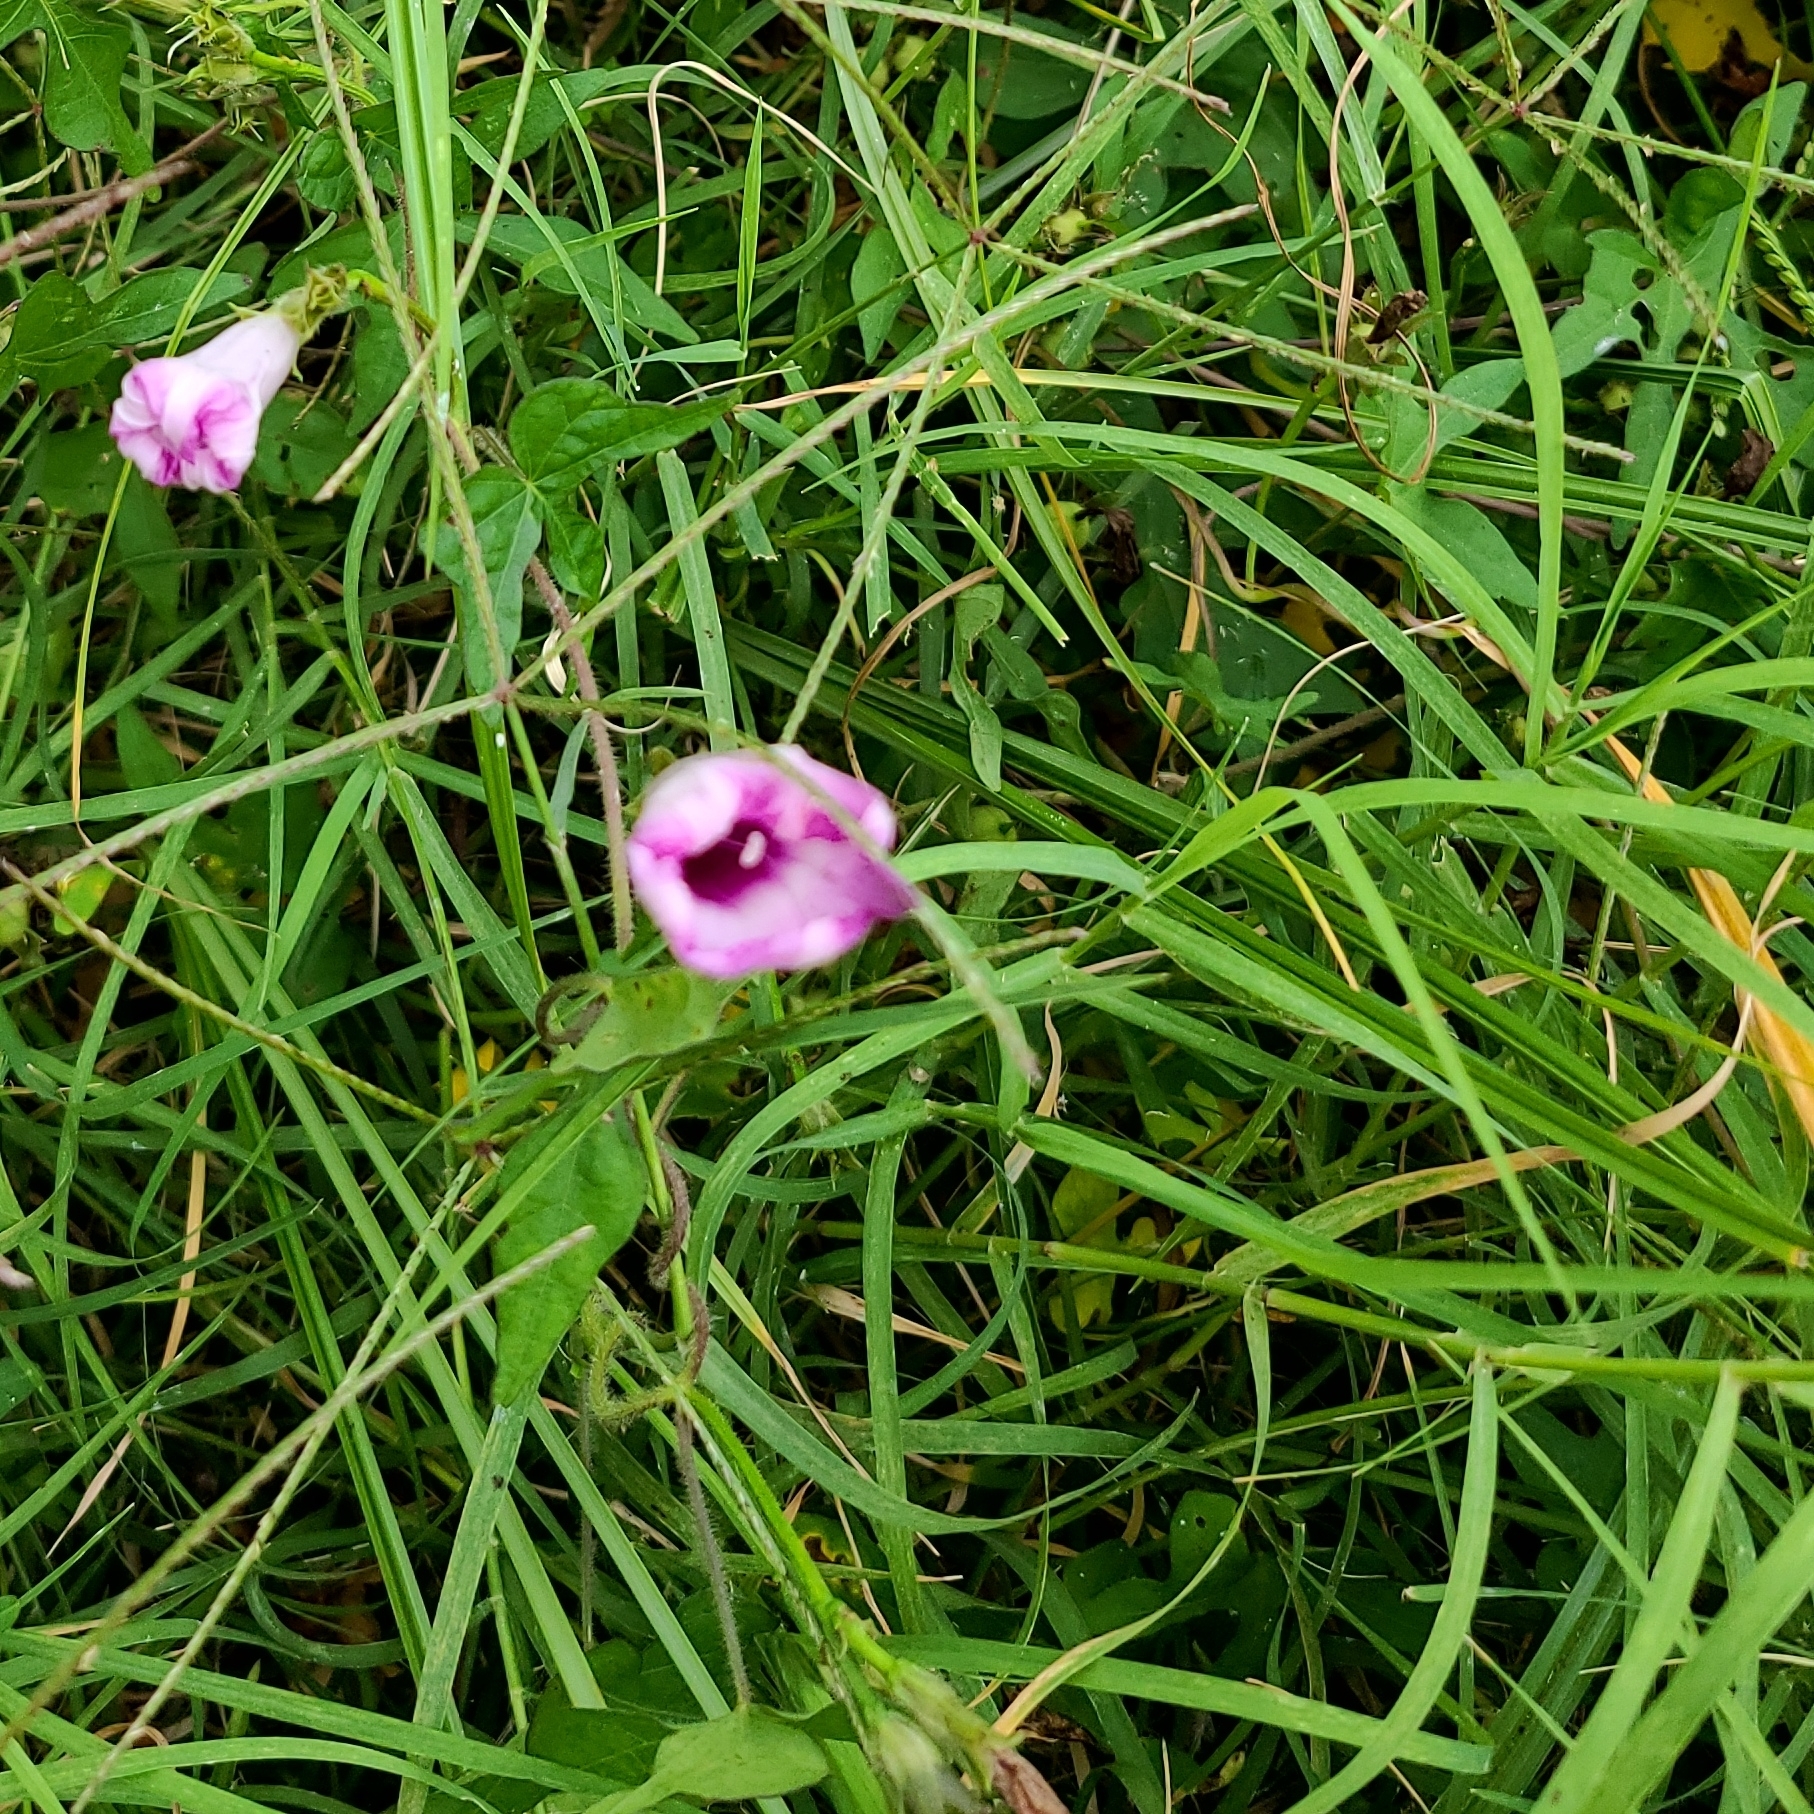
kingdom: Plantae
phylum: Tracheophyta
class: Magnoliopsida
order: Solanales
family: Convolvulaceae
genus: Ipomoea
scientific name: Ipomoea cordatotriloba
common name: Cotton morning glory
